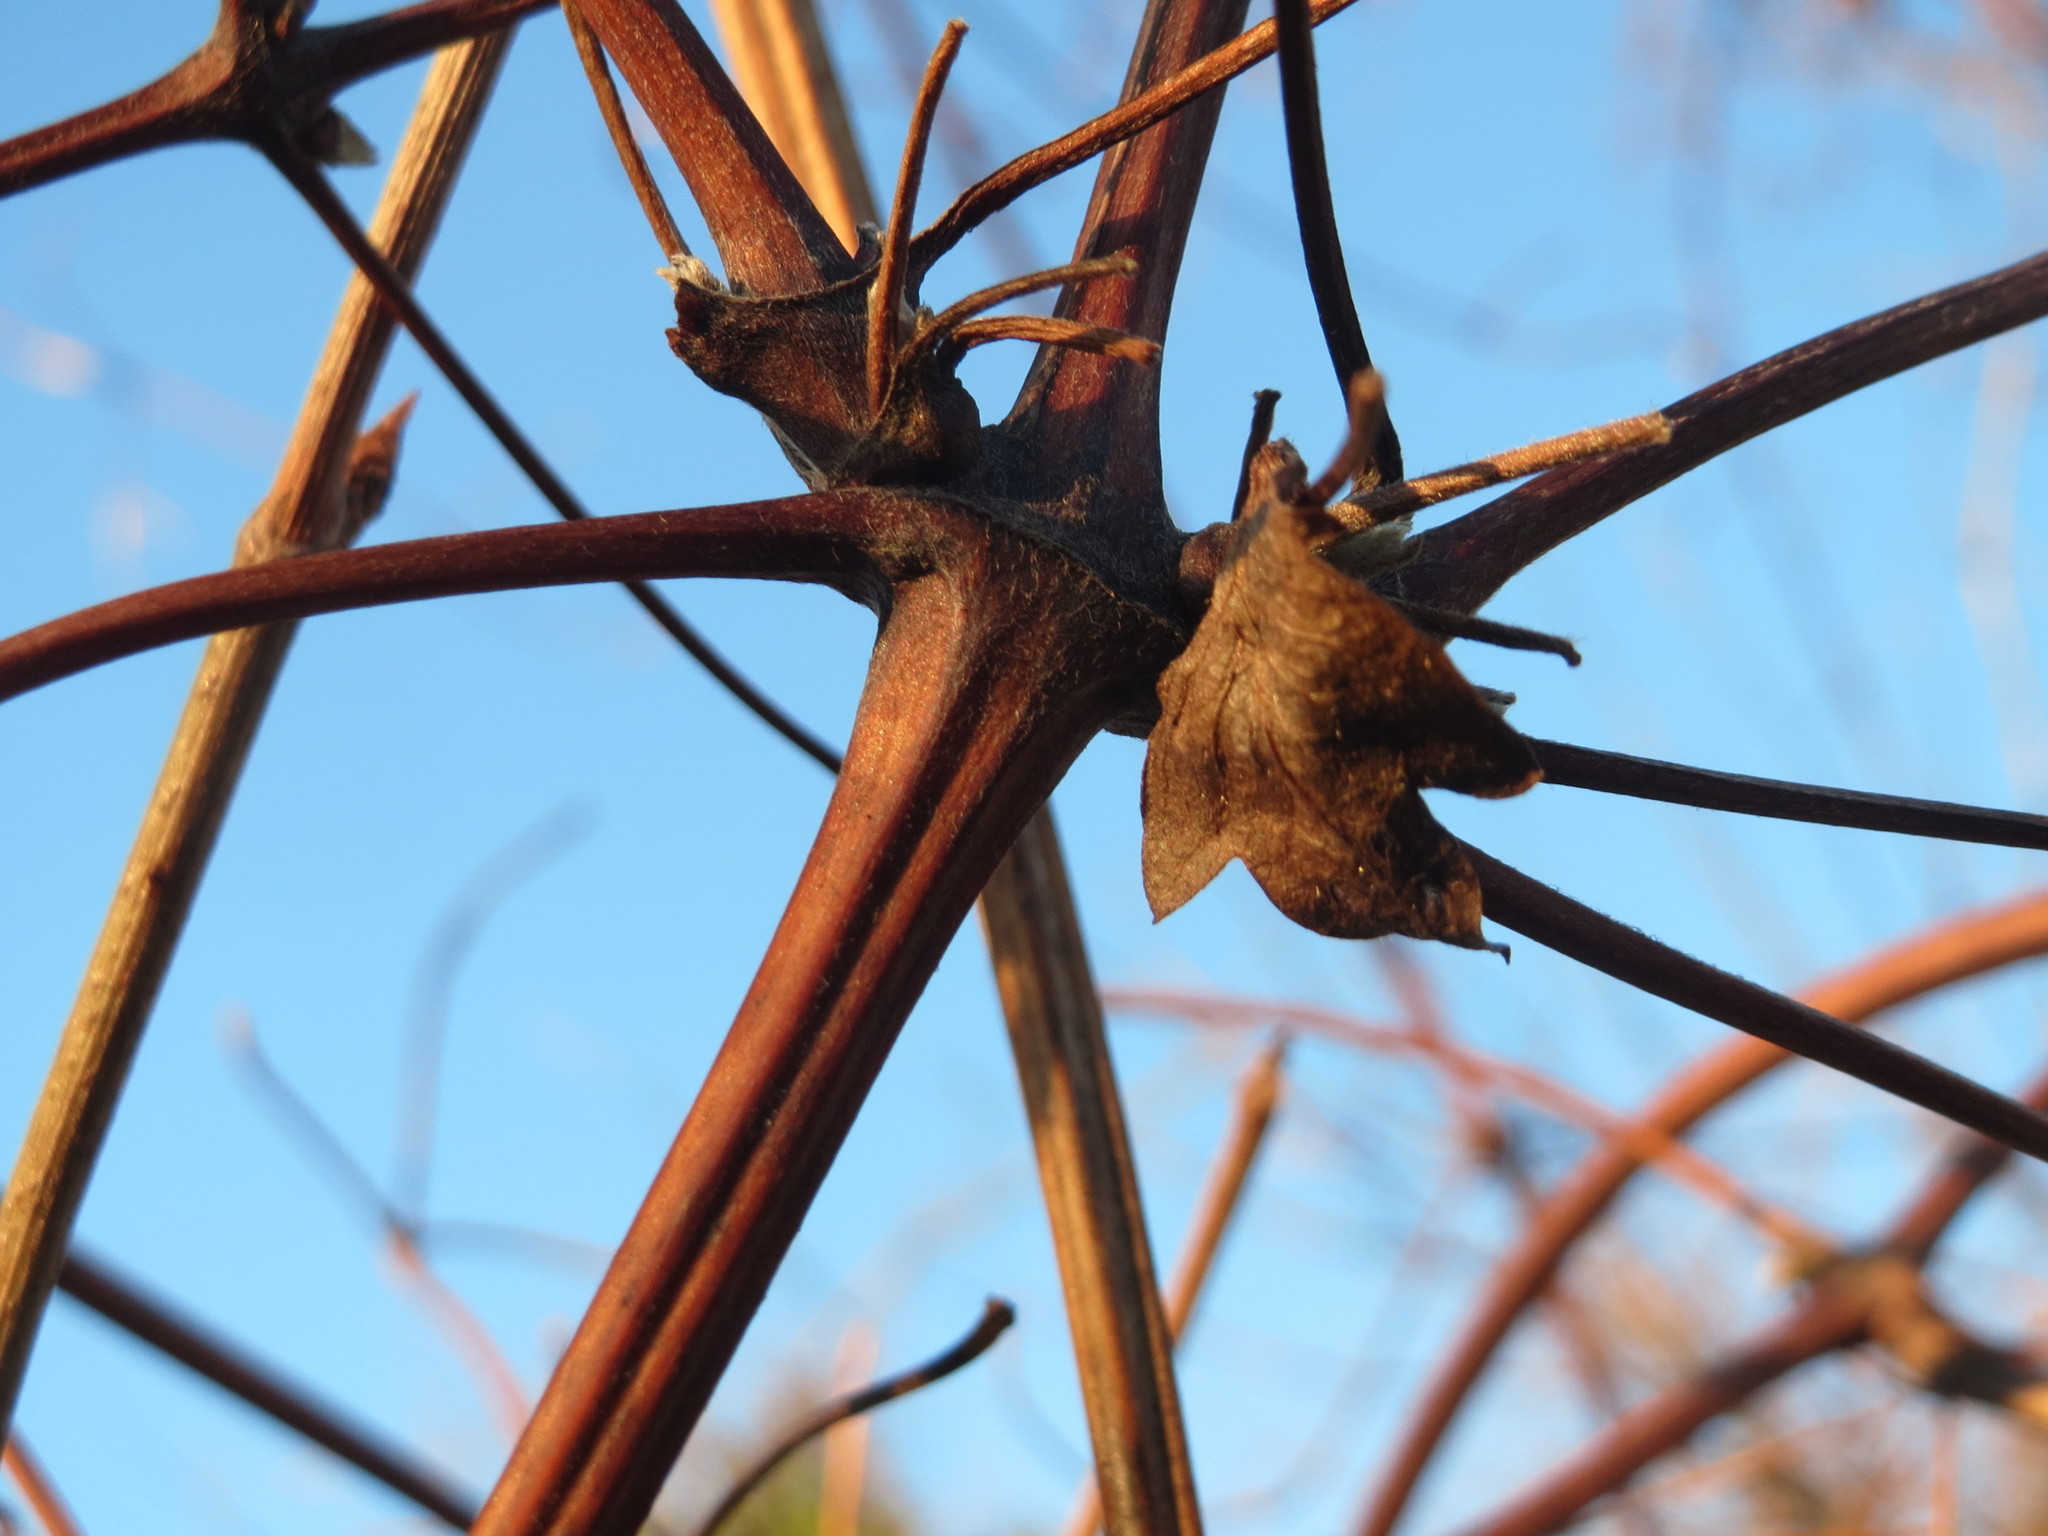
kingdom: Plantae
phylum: Tracheophyta
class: Magnoliopsida
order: Ranunculales
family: Ranunculaceae
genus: Clematis
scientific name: Clematis vitalba
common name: Evergreen clematis
